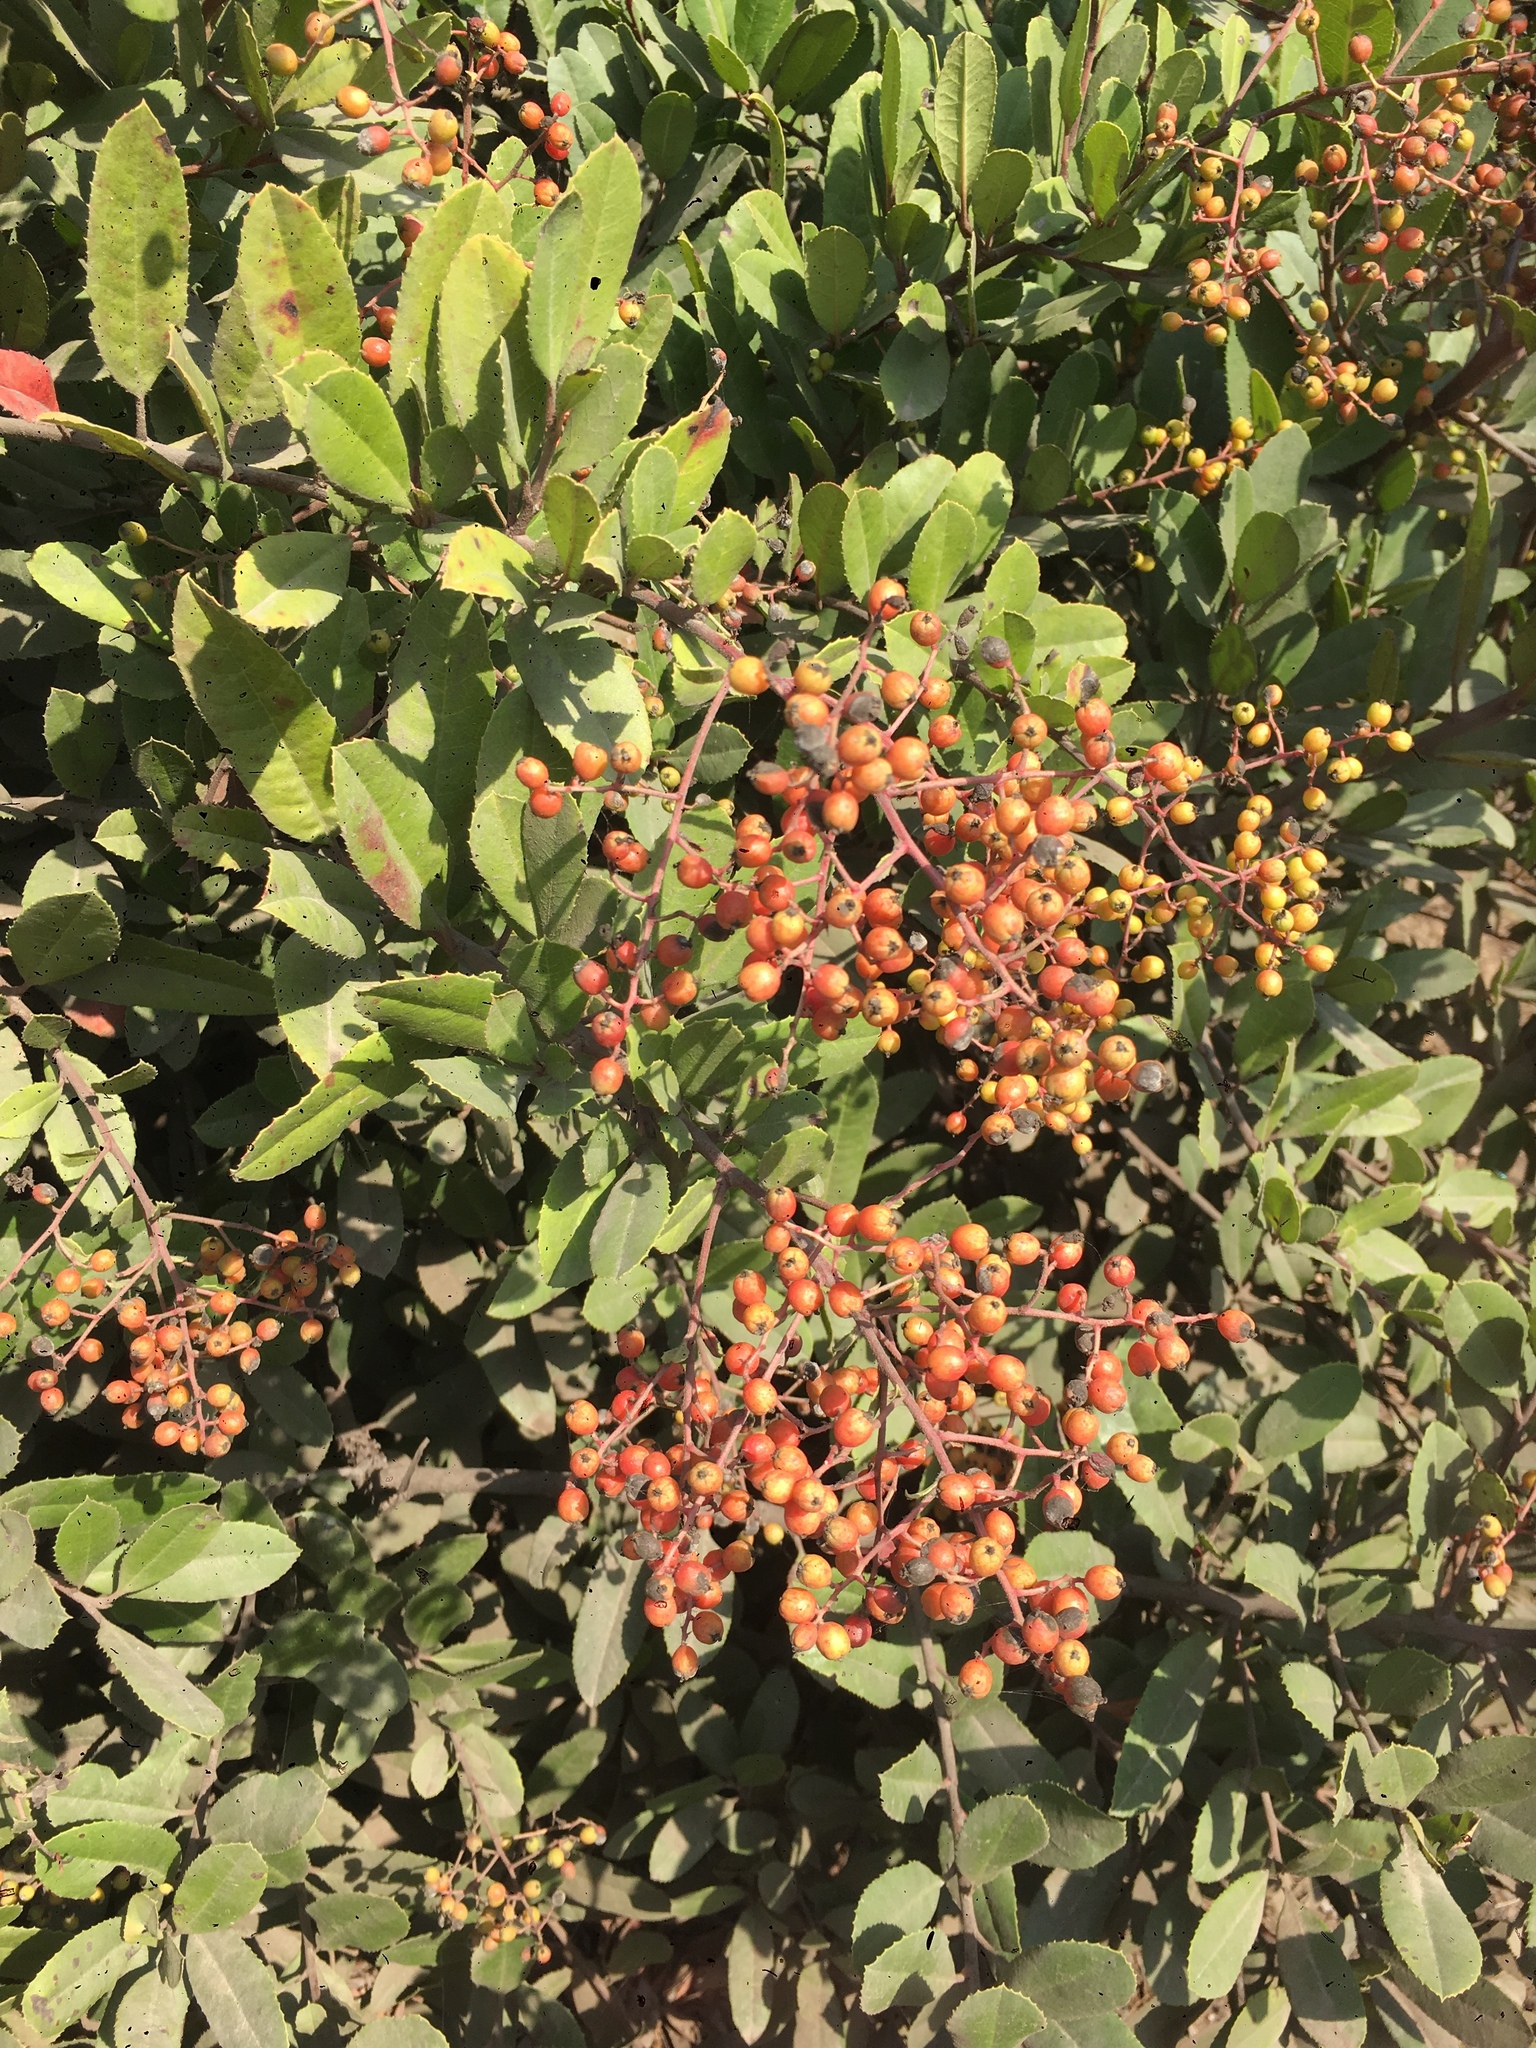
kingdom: Plantae
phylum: Tracheophyta
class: Magnoliopsida
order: Rosales
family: Rosaceae
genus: Heteromeles
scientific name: Heteromeles arbutifolia
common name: California-holly
